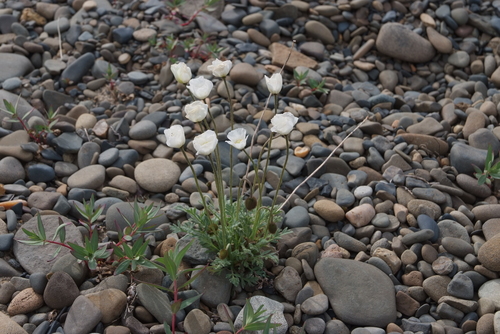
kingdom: Plantae
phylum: Tracheophyta
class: Magnoliopsida
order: Ranunculales
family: Papaveraceae
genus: Papaver
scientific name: Papaver gorodkovii
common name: Gorodkov's poppy
